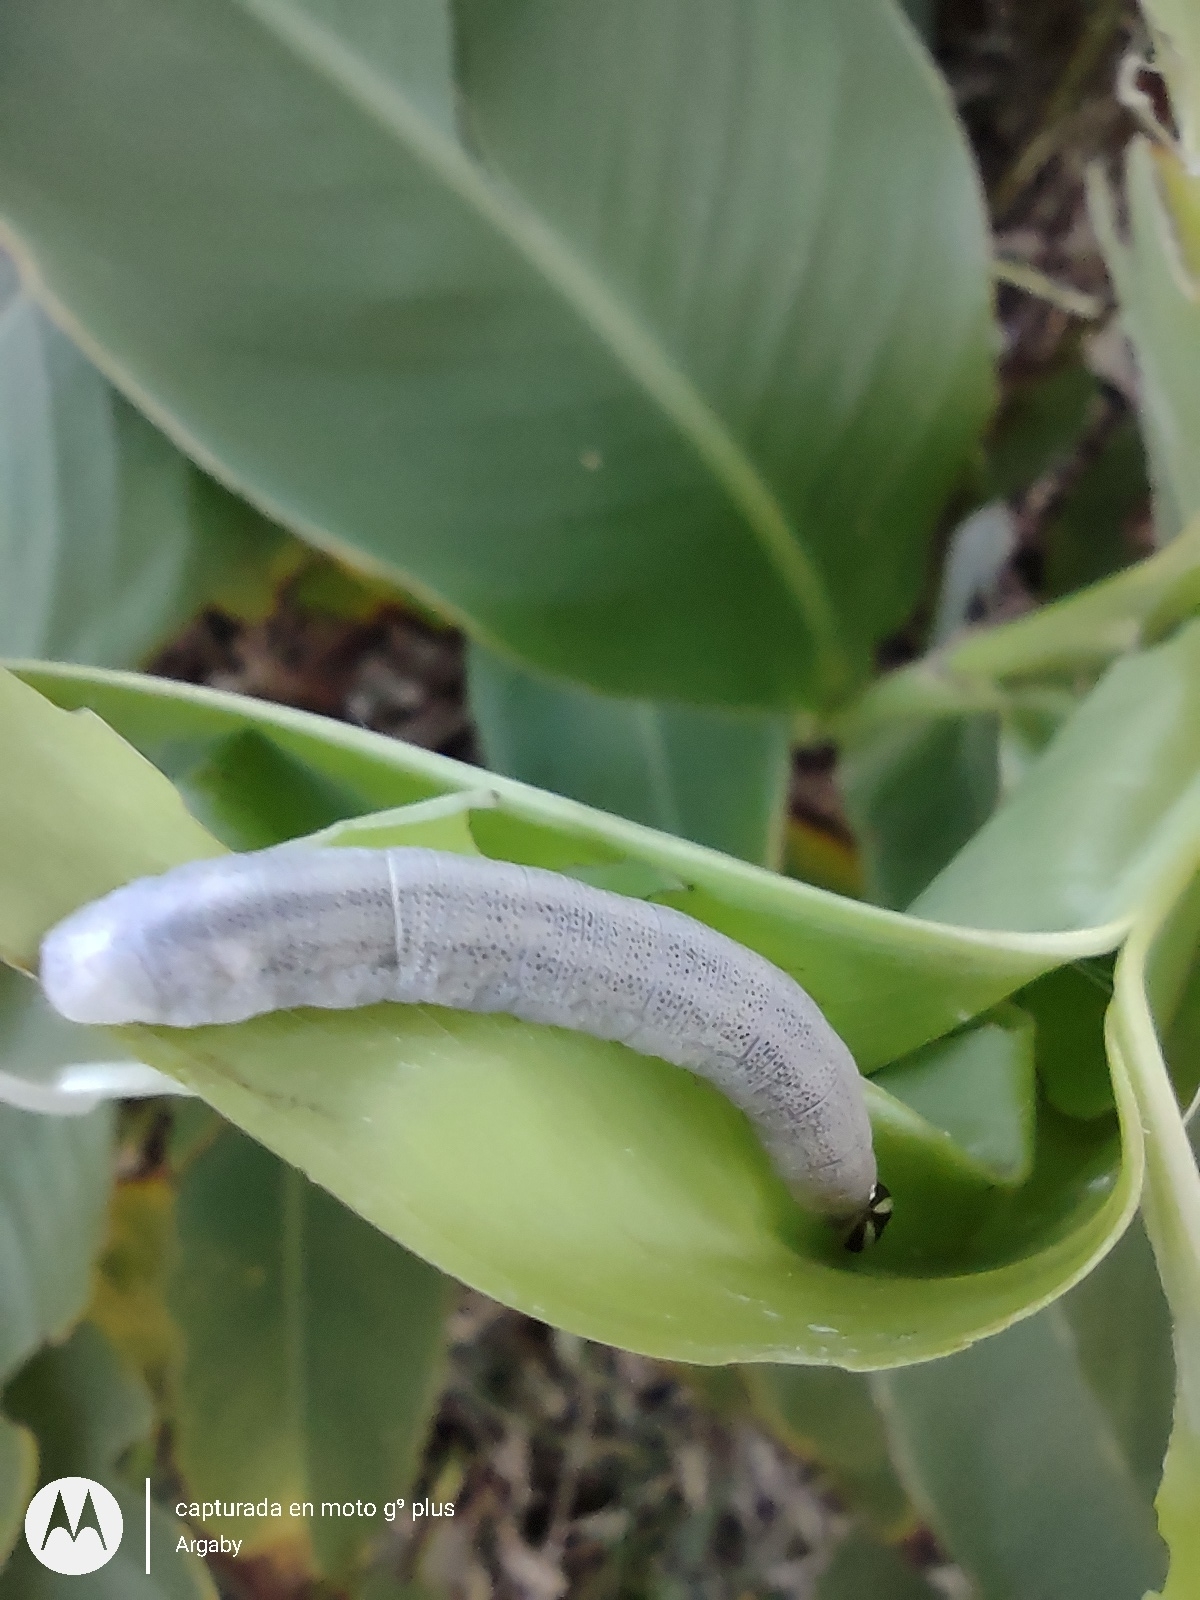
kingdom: Animalia
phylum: Arthropoda
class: Insecta
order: Lepidoptera
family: Hesperiidae
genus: Quinta
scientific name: Quinta cannae
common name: Canna skipper
